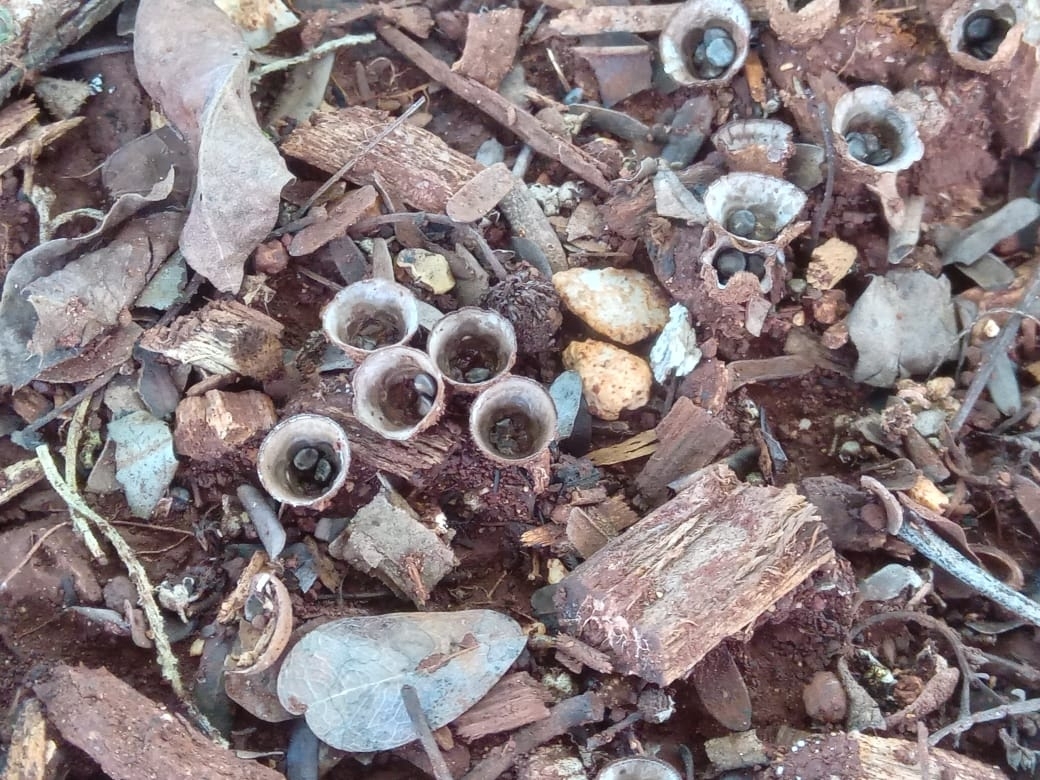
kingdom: Fungi
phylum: Basidiomycota
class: Agaricomycetes
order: Agaricales
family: Agaricaceae
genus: Cyathus
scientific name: Cyathus striatus
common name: Fluted bird's nest
